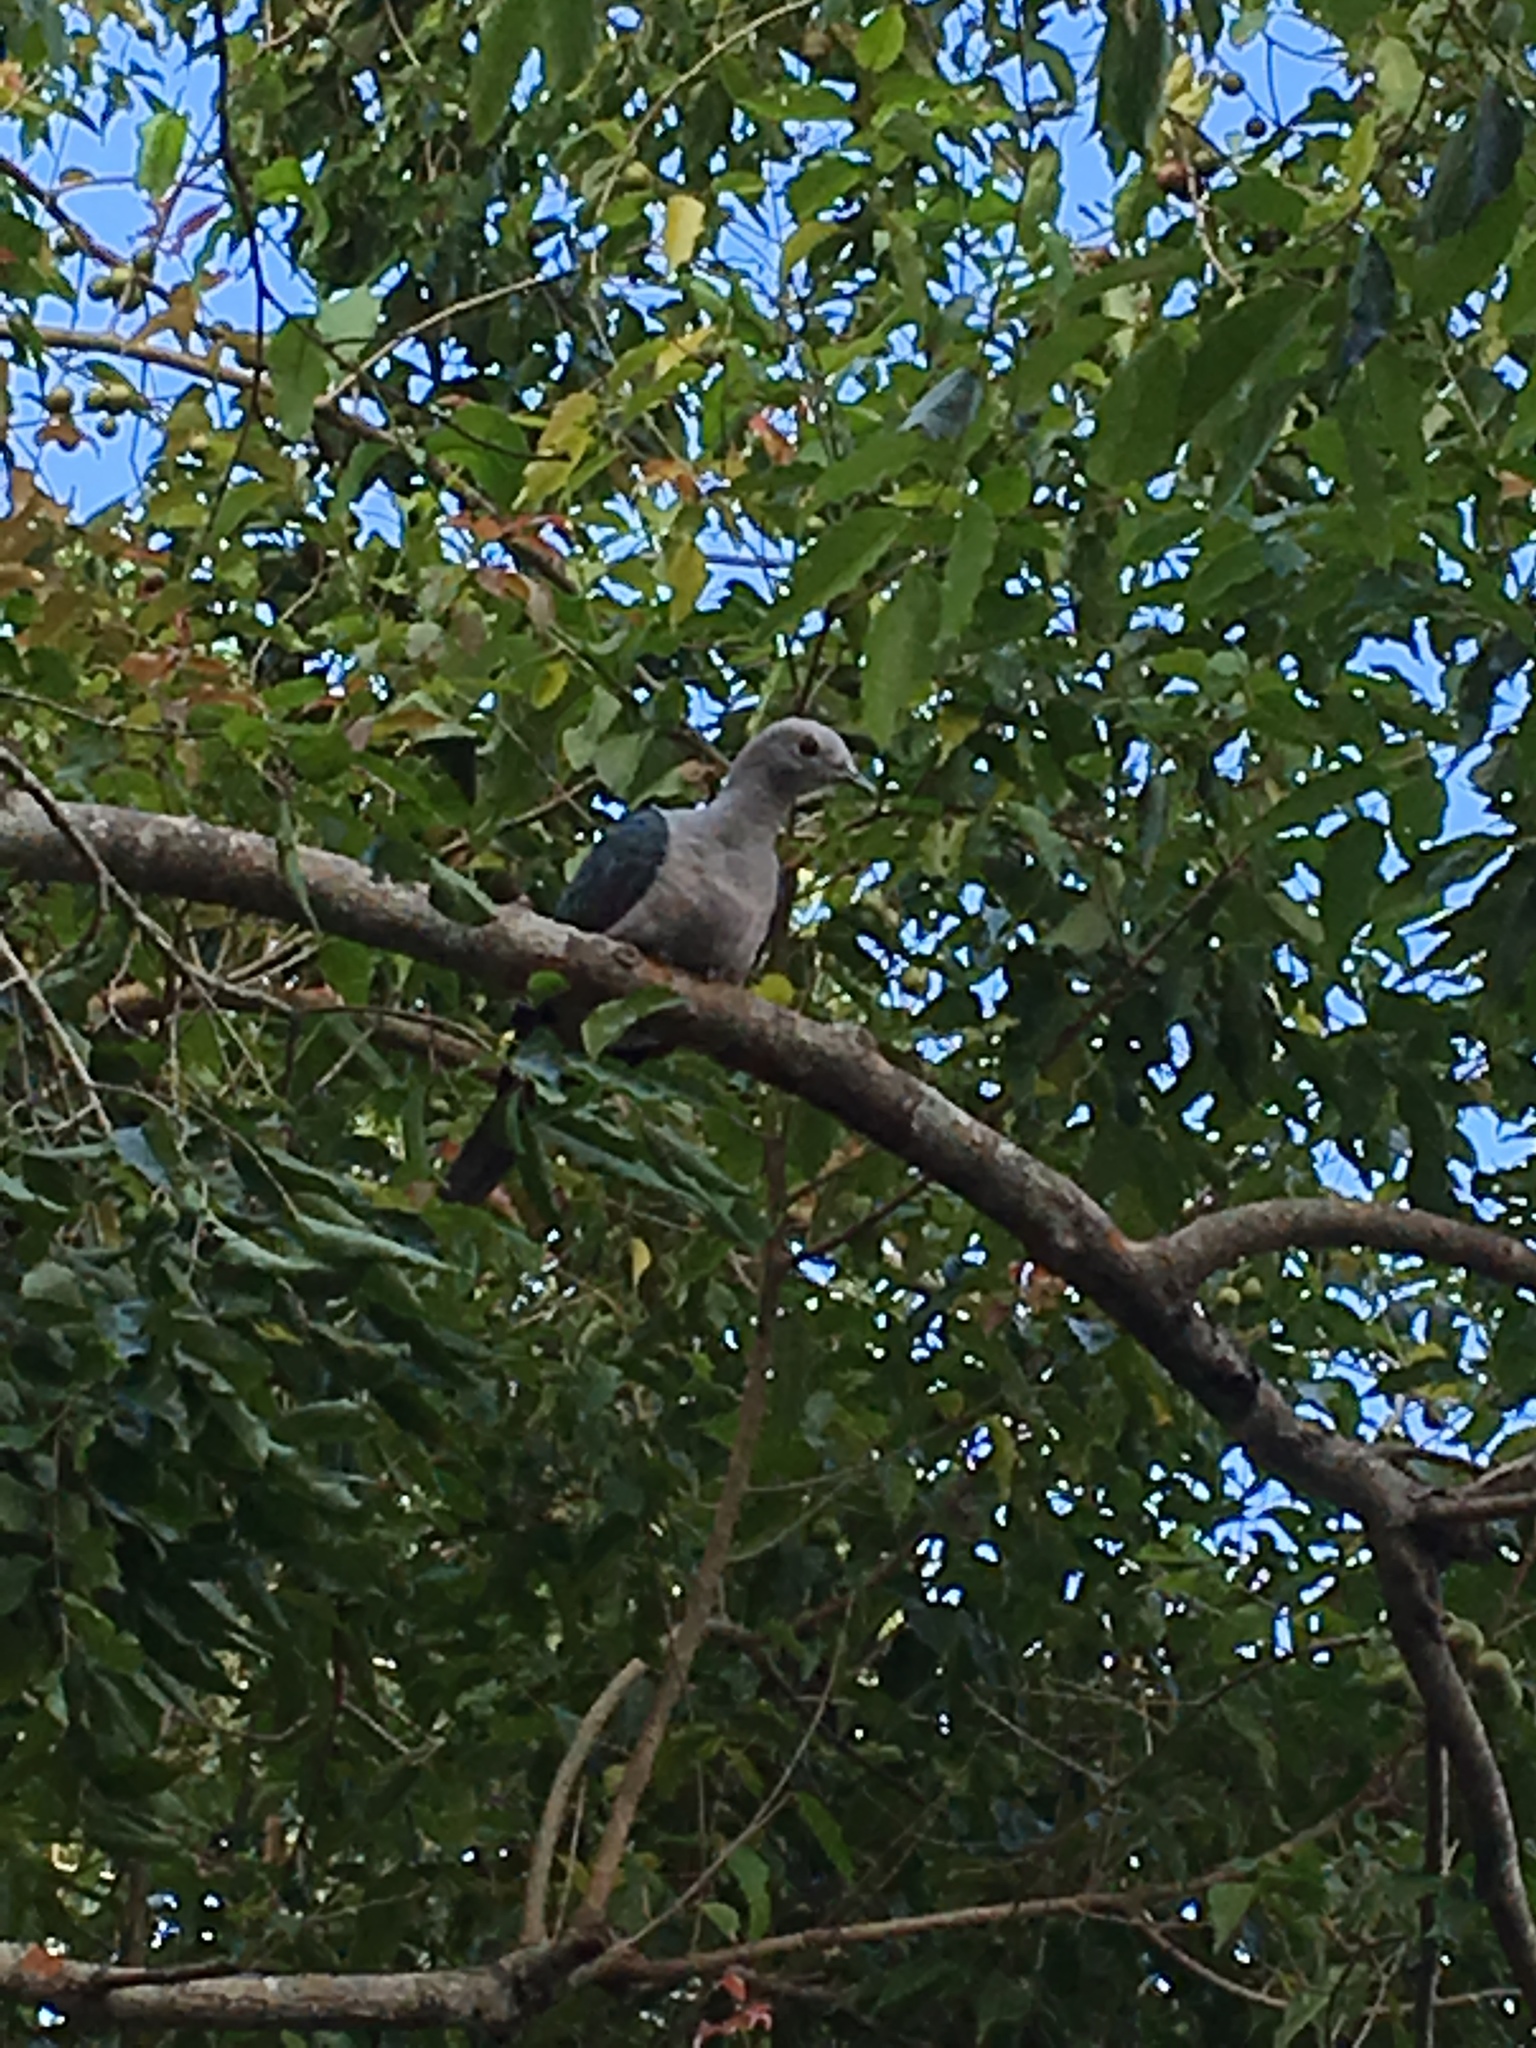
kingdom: Animalia
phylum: Chordata
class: Aves
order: Columbiformes
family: Columbidae
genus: Ducula
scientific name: Ducula aenea
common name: Green imperial pigeon
